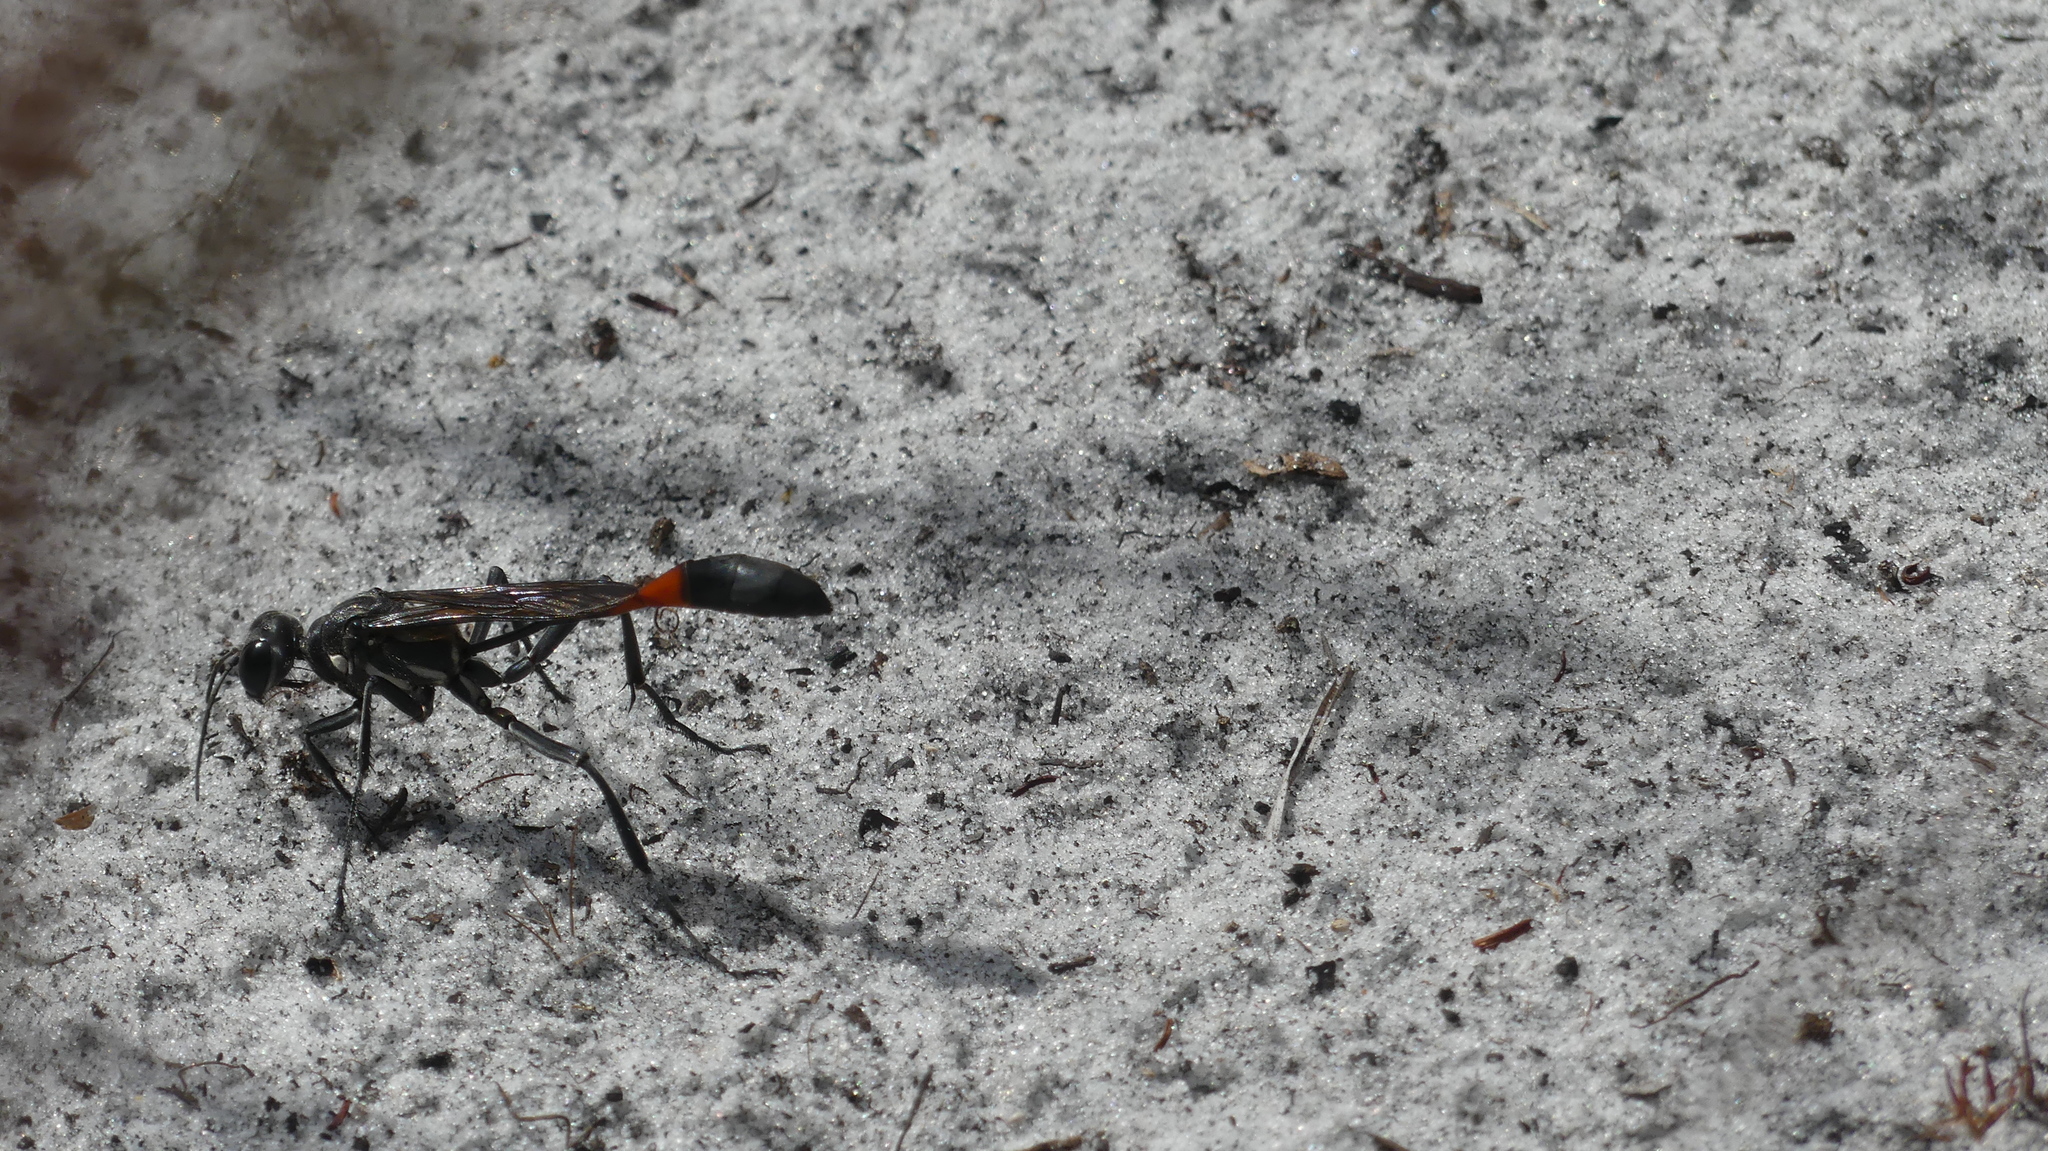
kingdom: Animalia
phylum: Arthropoda
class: Insecta
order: Hymenoptera
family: Sphecidae
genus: Ammophila
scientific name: Ammophila procera
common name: Common thread-waisted wasp
